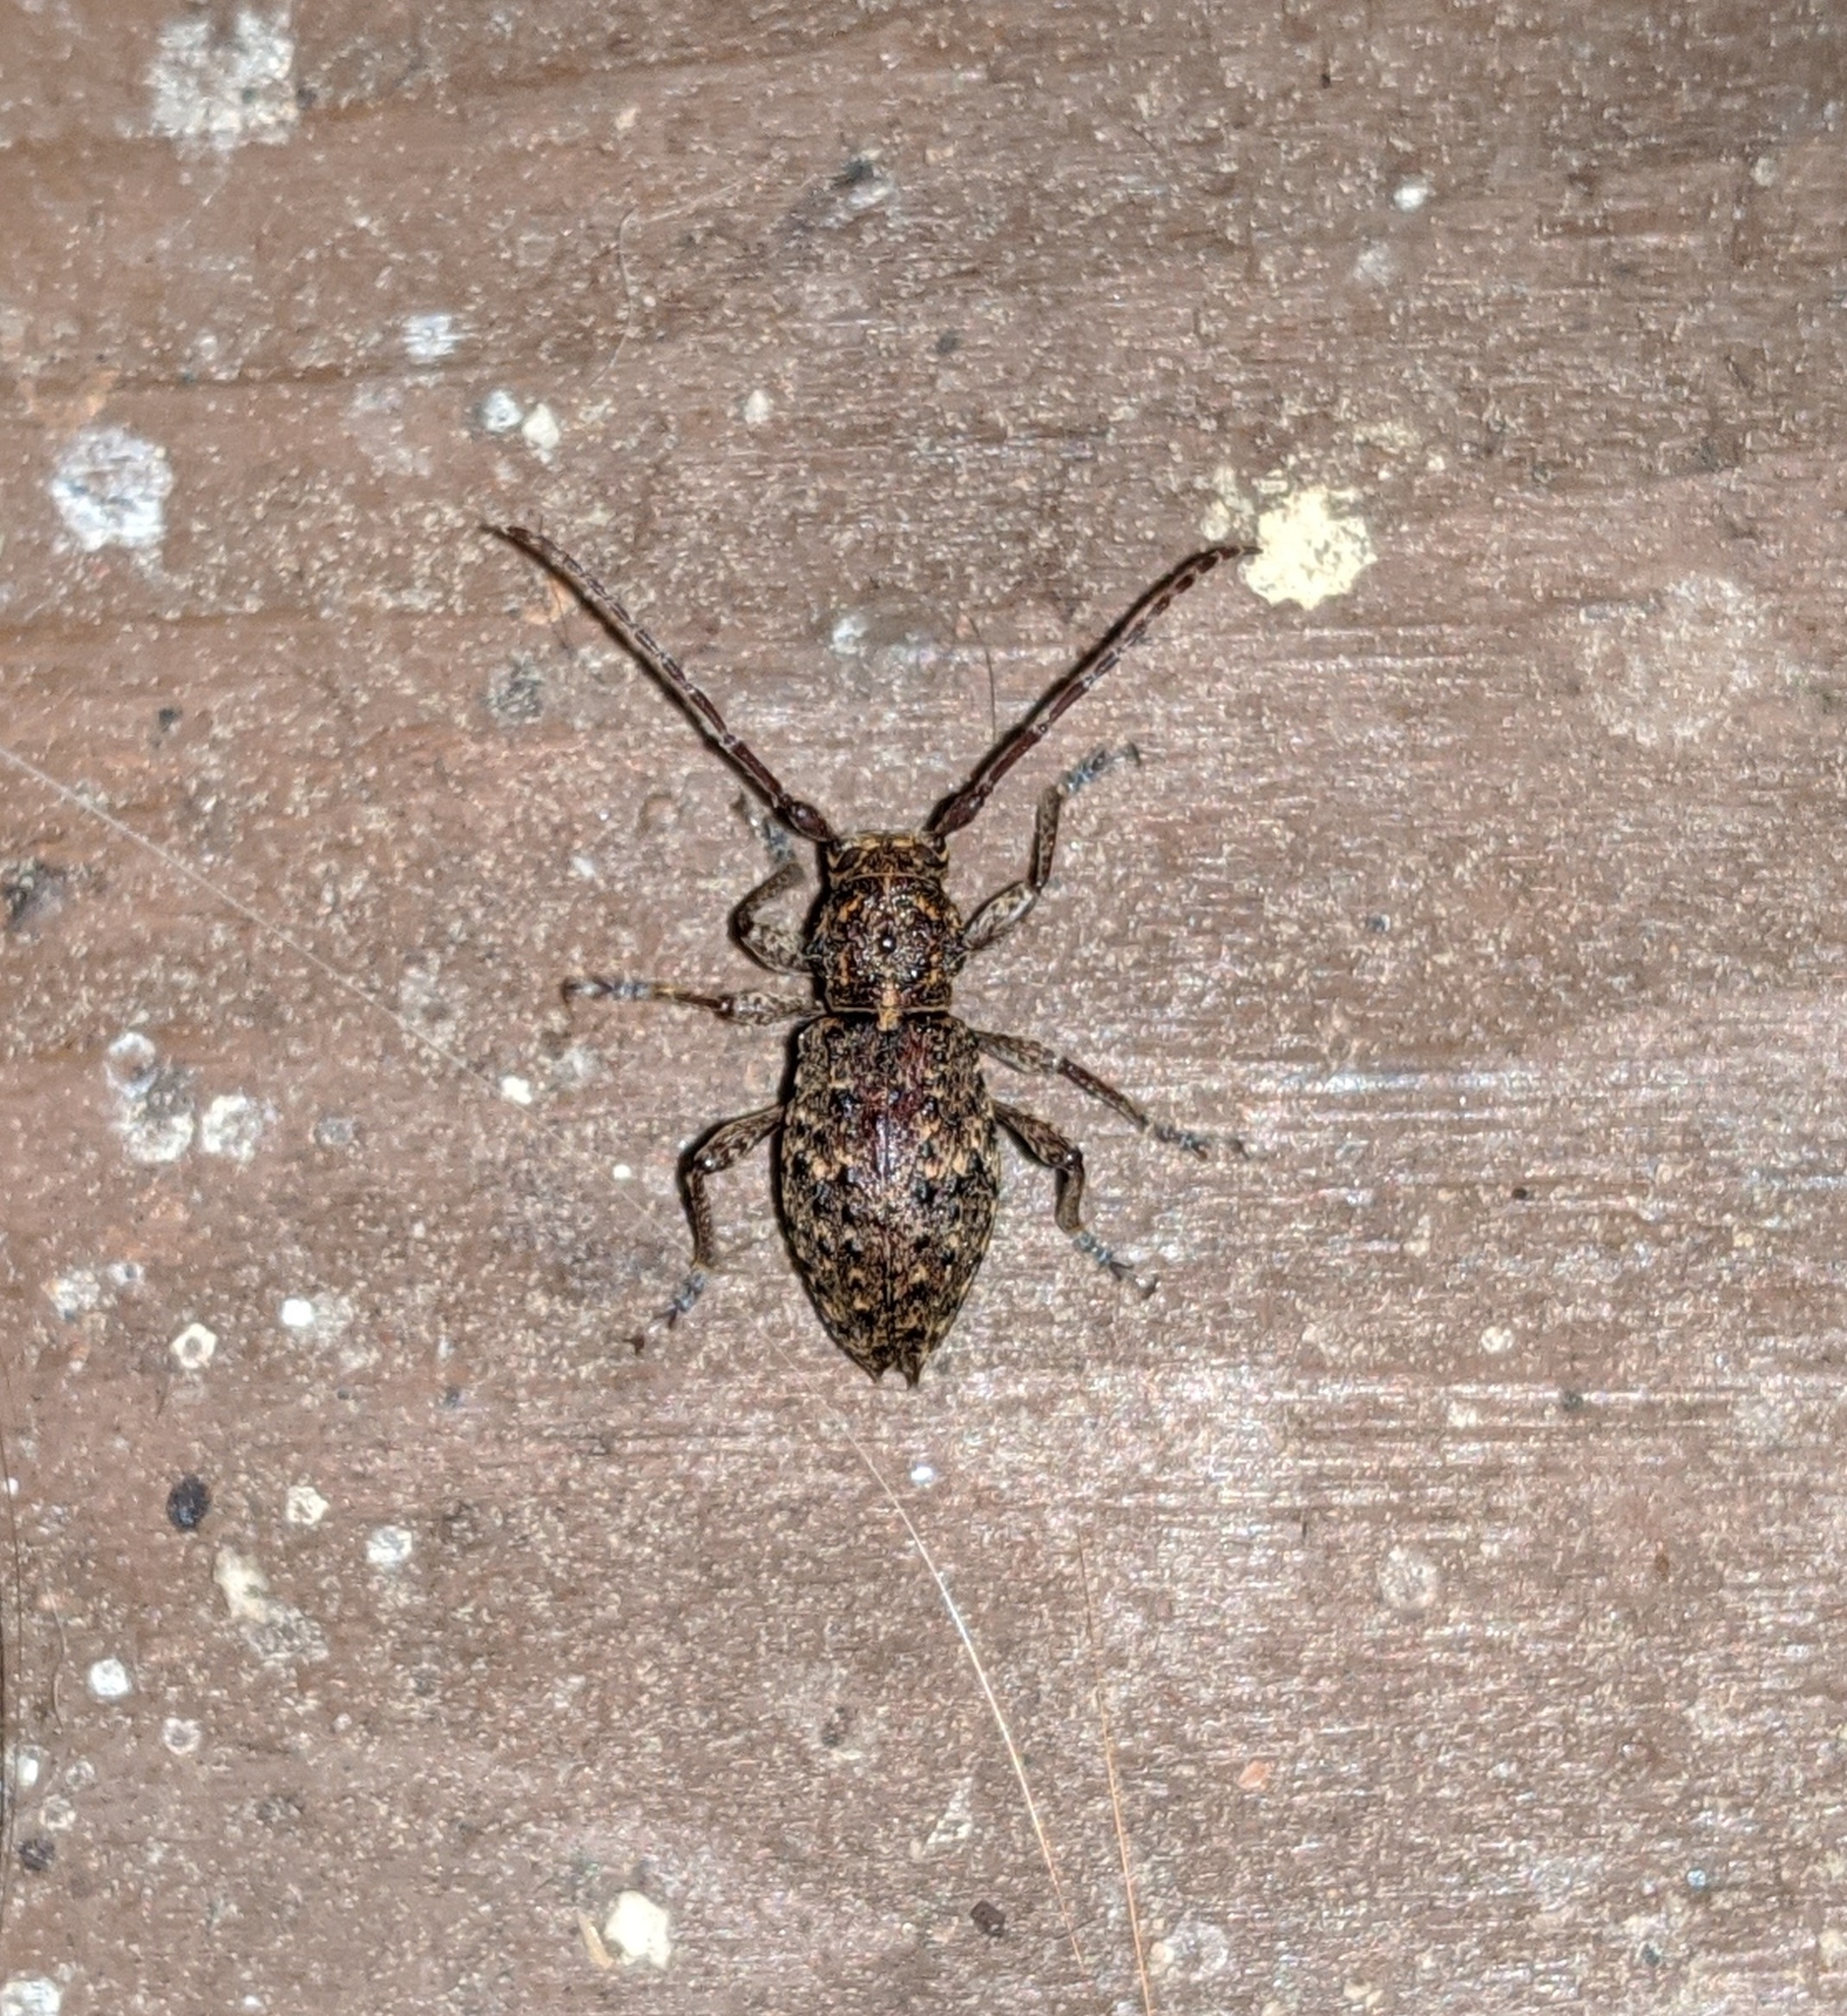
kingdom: Animalia
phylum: Arthropoda
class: Insecta
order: Coleoptera
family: Cerambycidae
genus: Plectrura
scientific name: Plectrura spinicauda
